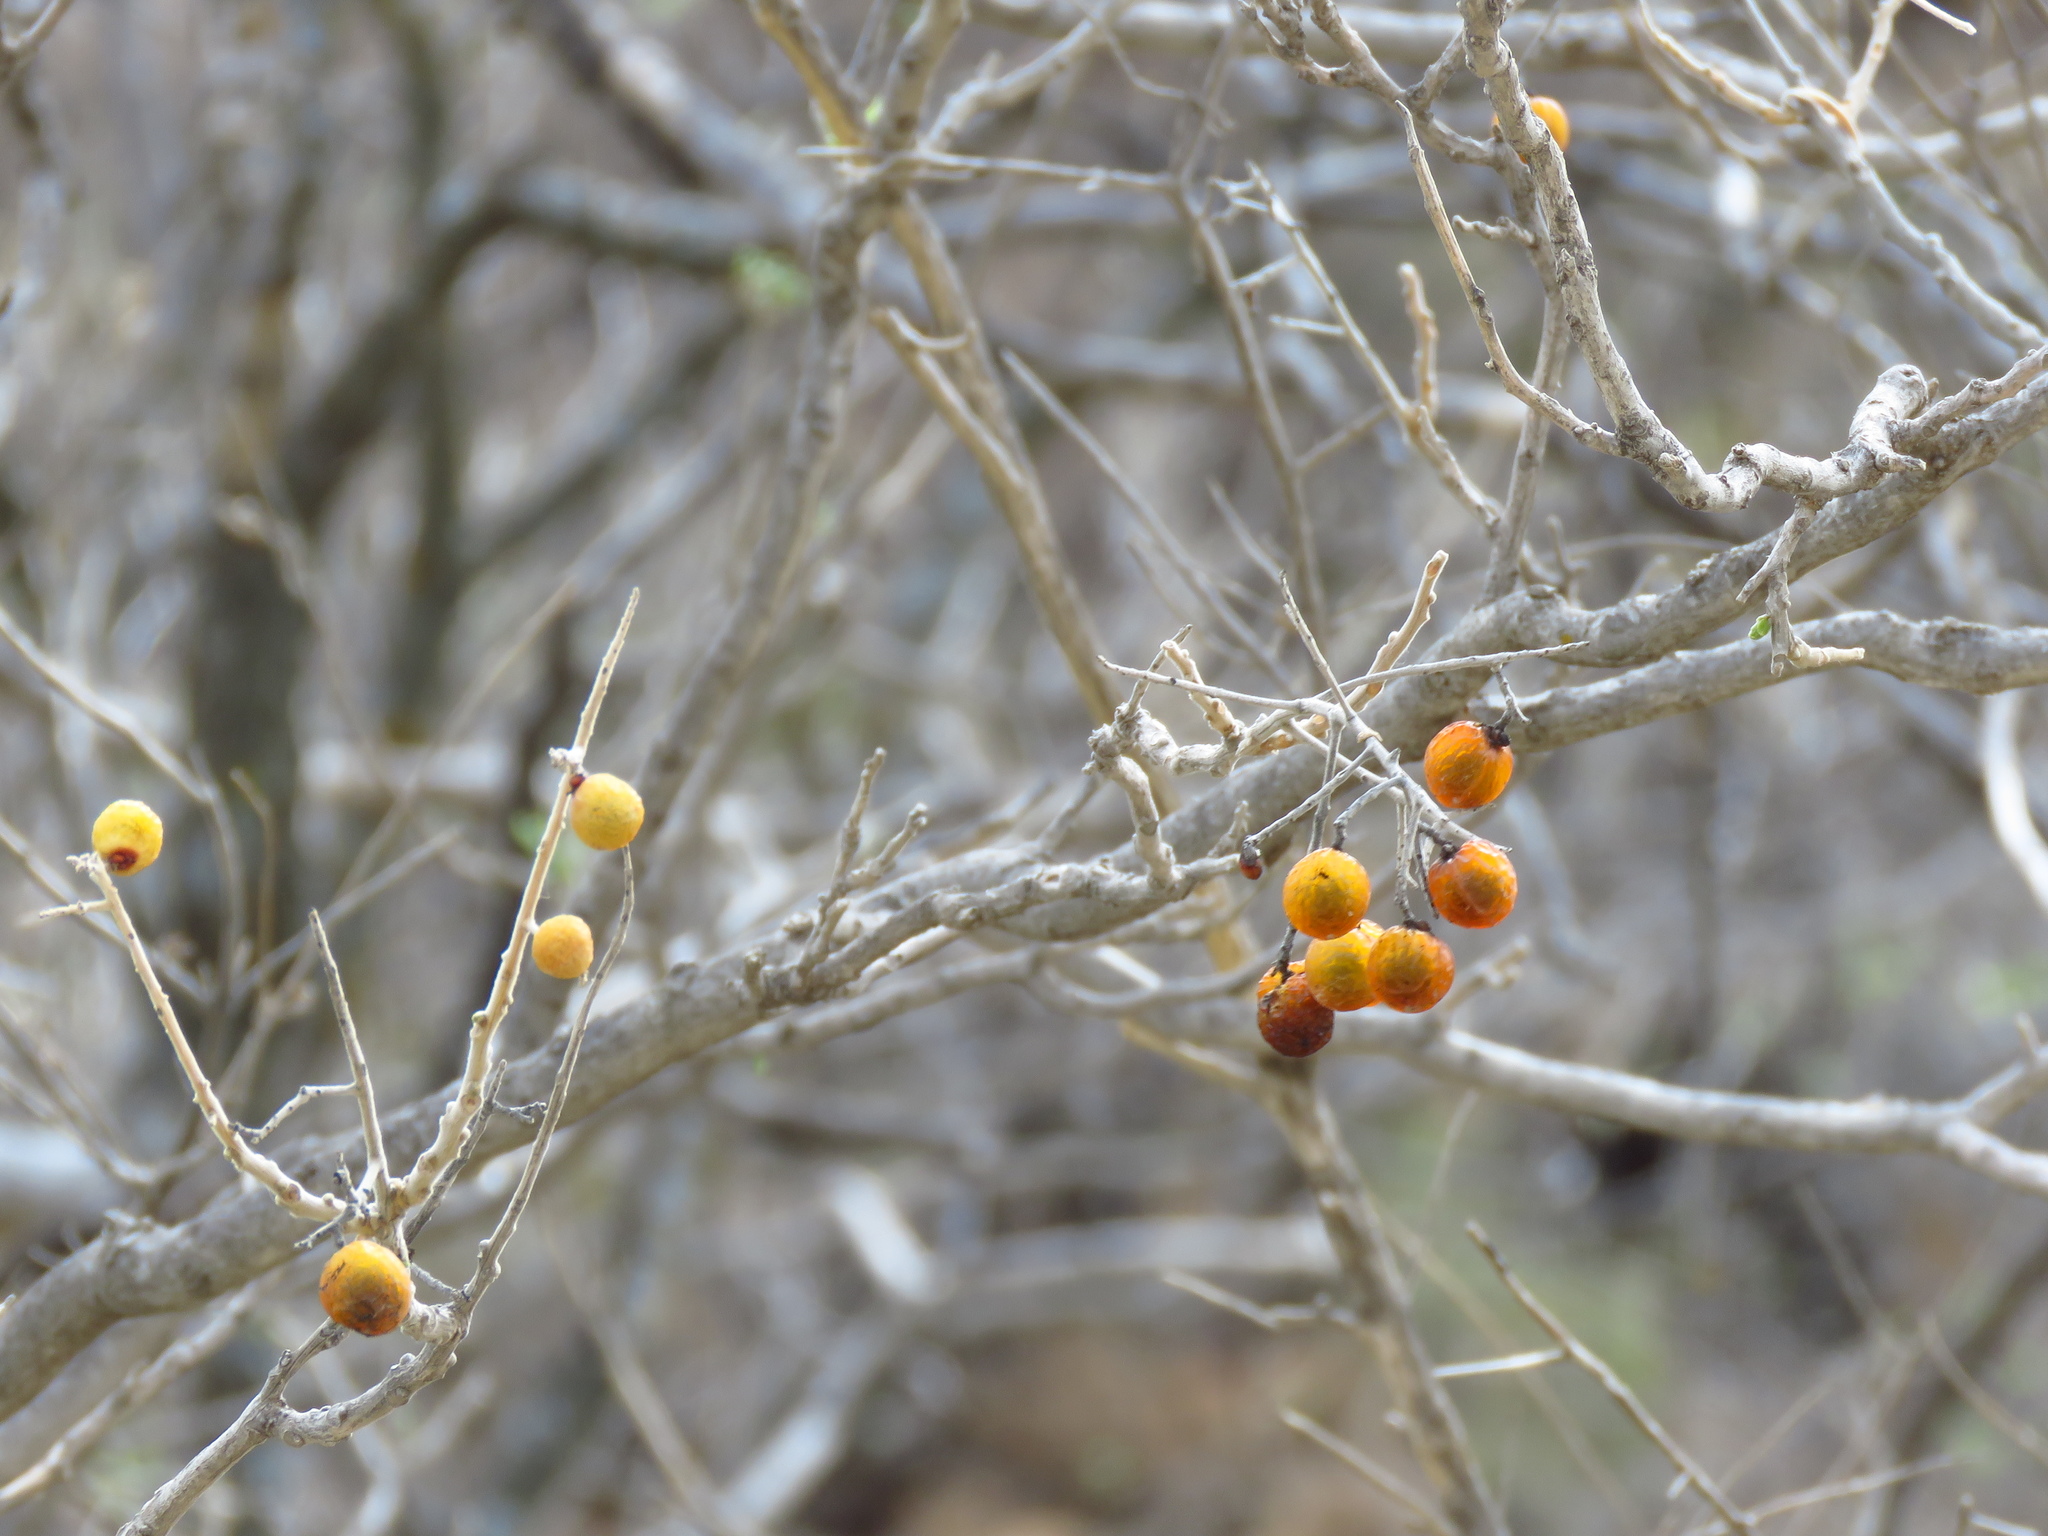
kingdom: Plantae
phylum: Tracheophyta
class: Magnoliopsida
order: Sapindales
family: Sapindaceae
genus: Sapindus
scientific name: Sapindus drummondii
